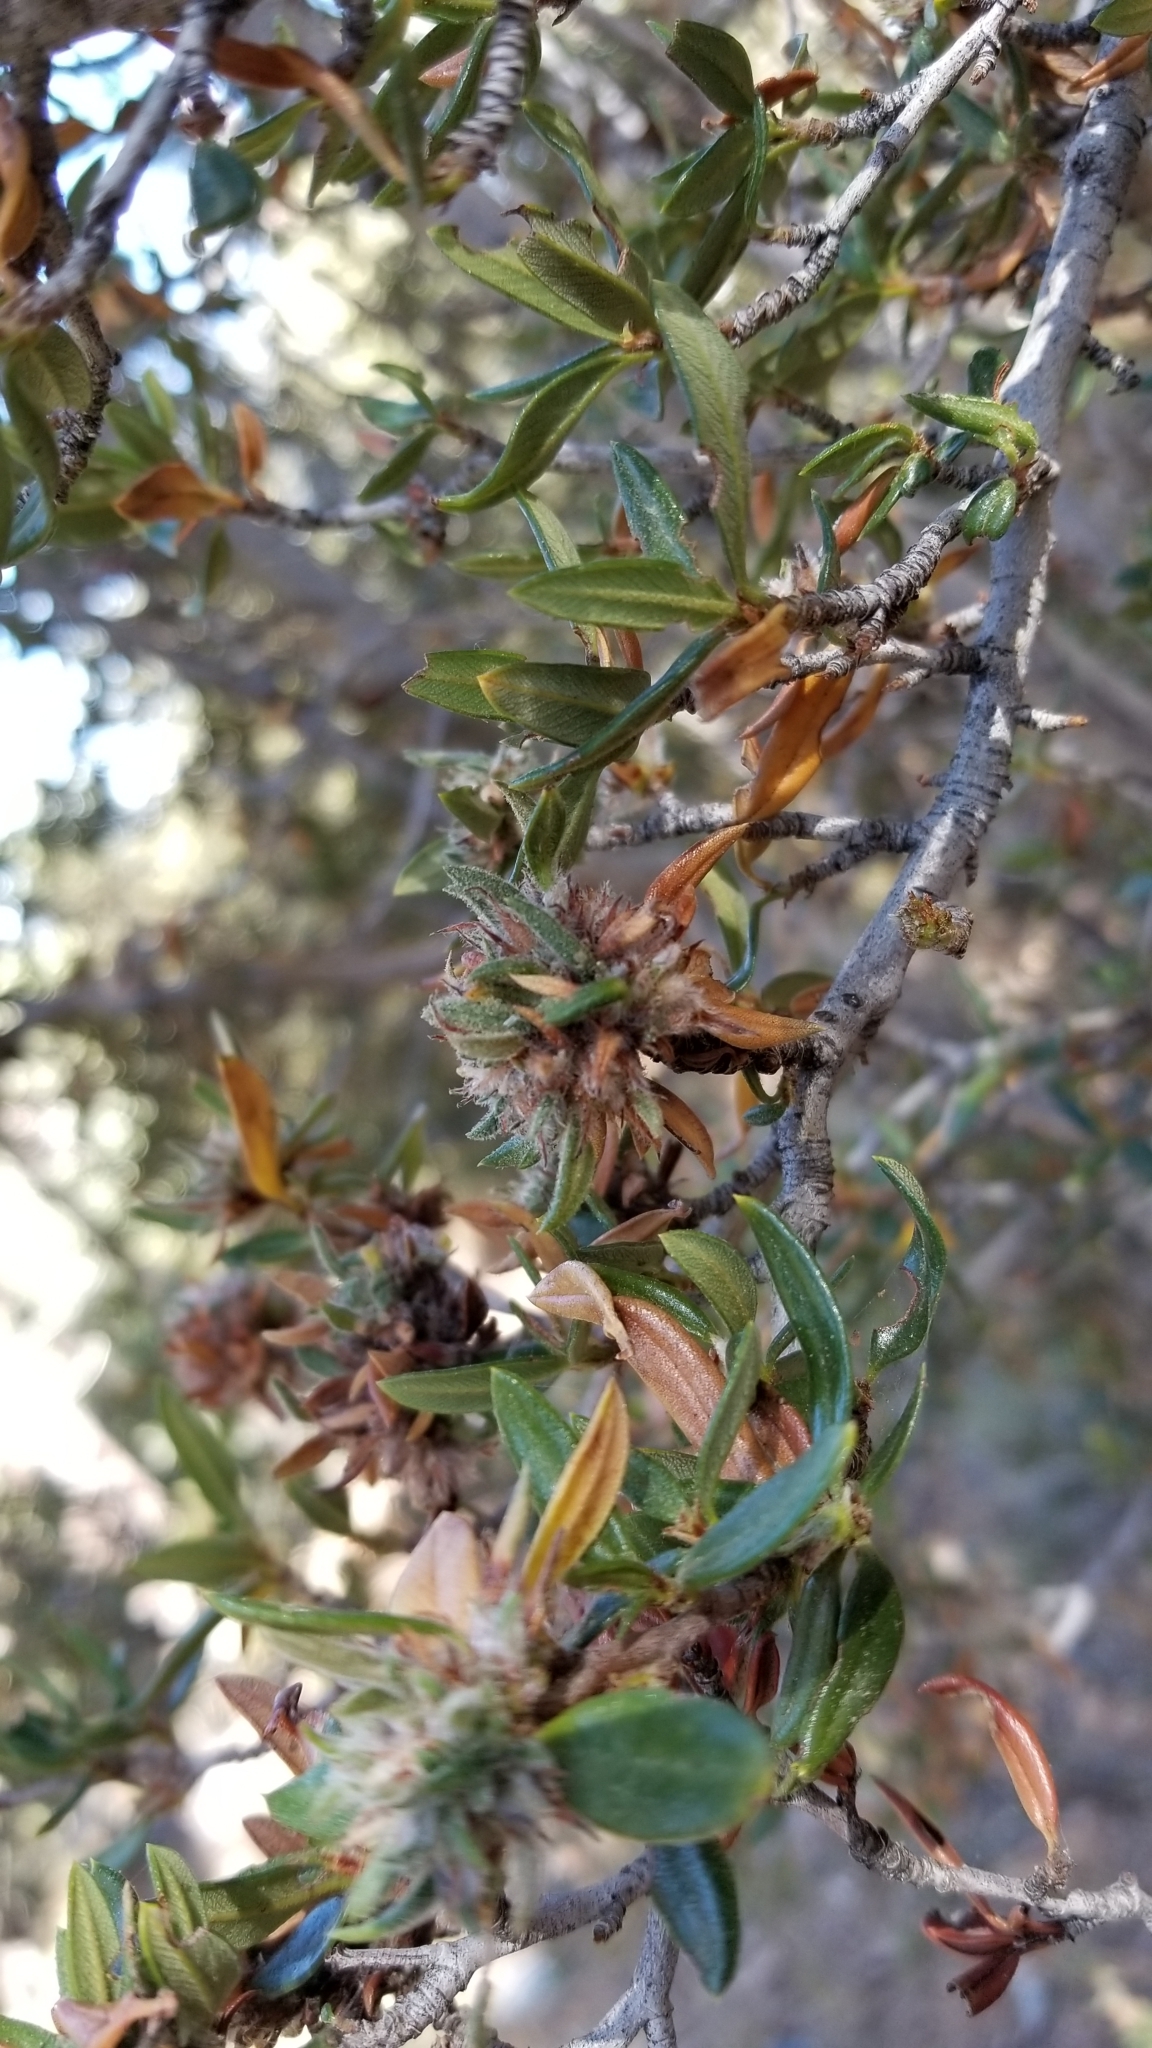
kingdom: Plantae
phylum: Tracheophyta
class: Magnoliopsida
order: Rosales
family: Rosaceae
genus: Cercocarpus
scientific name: Cercocarpus ledifolius
